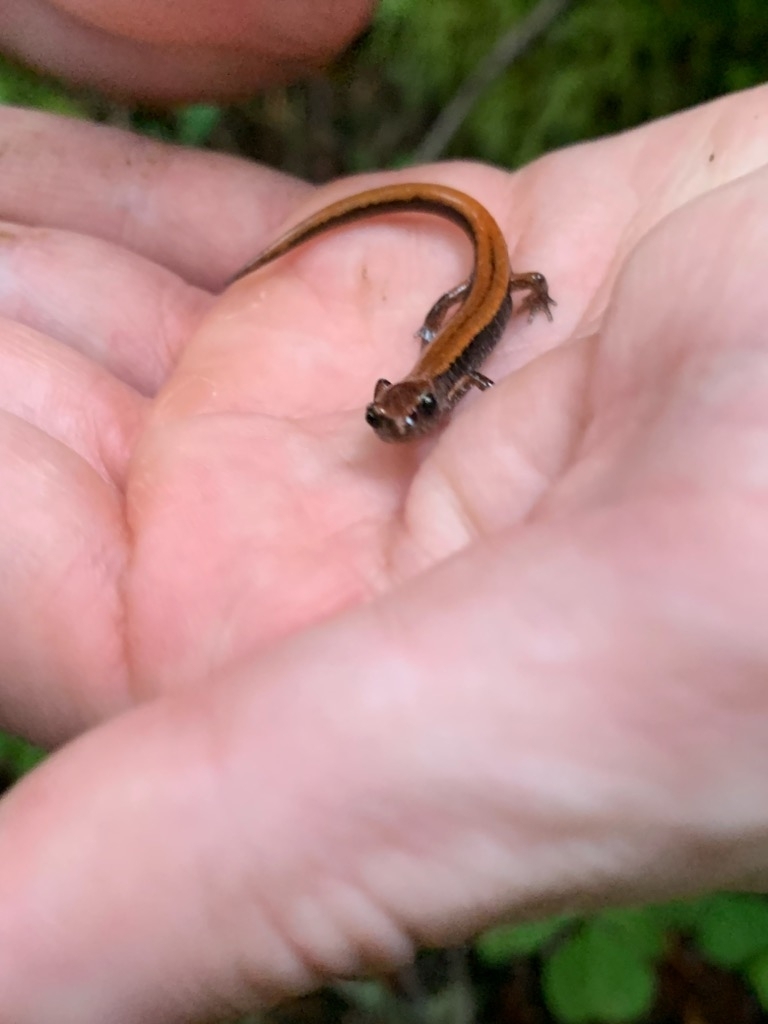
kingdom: Animalia
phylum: Chordata
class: Amphibia
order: Caudata
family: Plethodontidae
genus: Plethodon
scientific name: Plethodon vehiculum
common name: Western red-backed salamander
